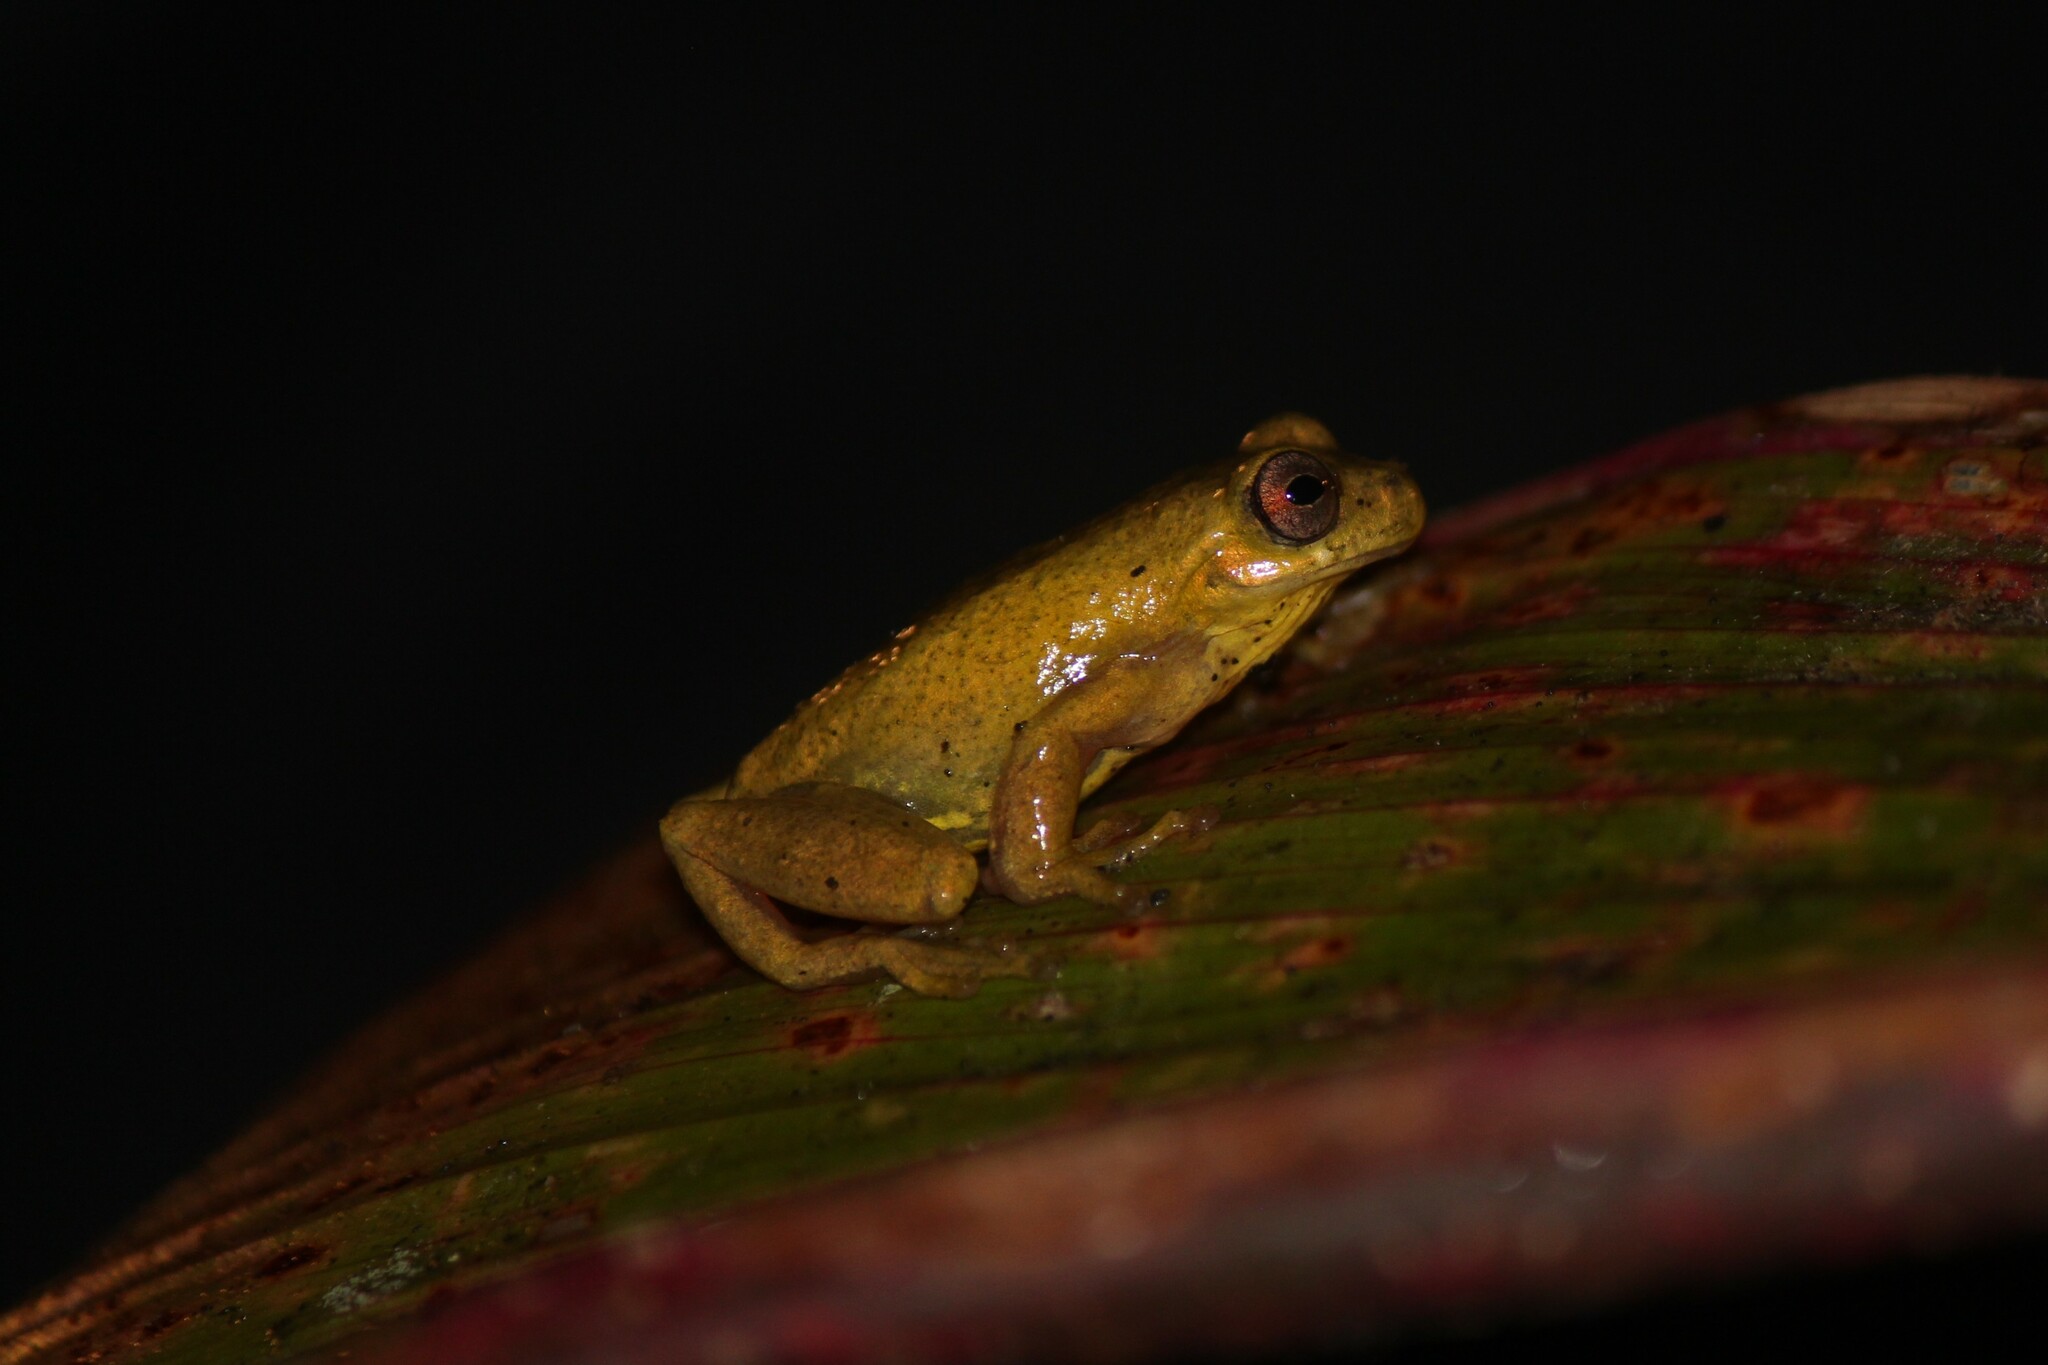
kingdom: Animalia
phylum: Chordata
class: Amphibia
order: Anura
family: Hylidae
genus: Dendropsophus
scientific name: Dendropsophus carnifex
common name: Executioner treefrog
